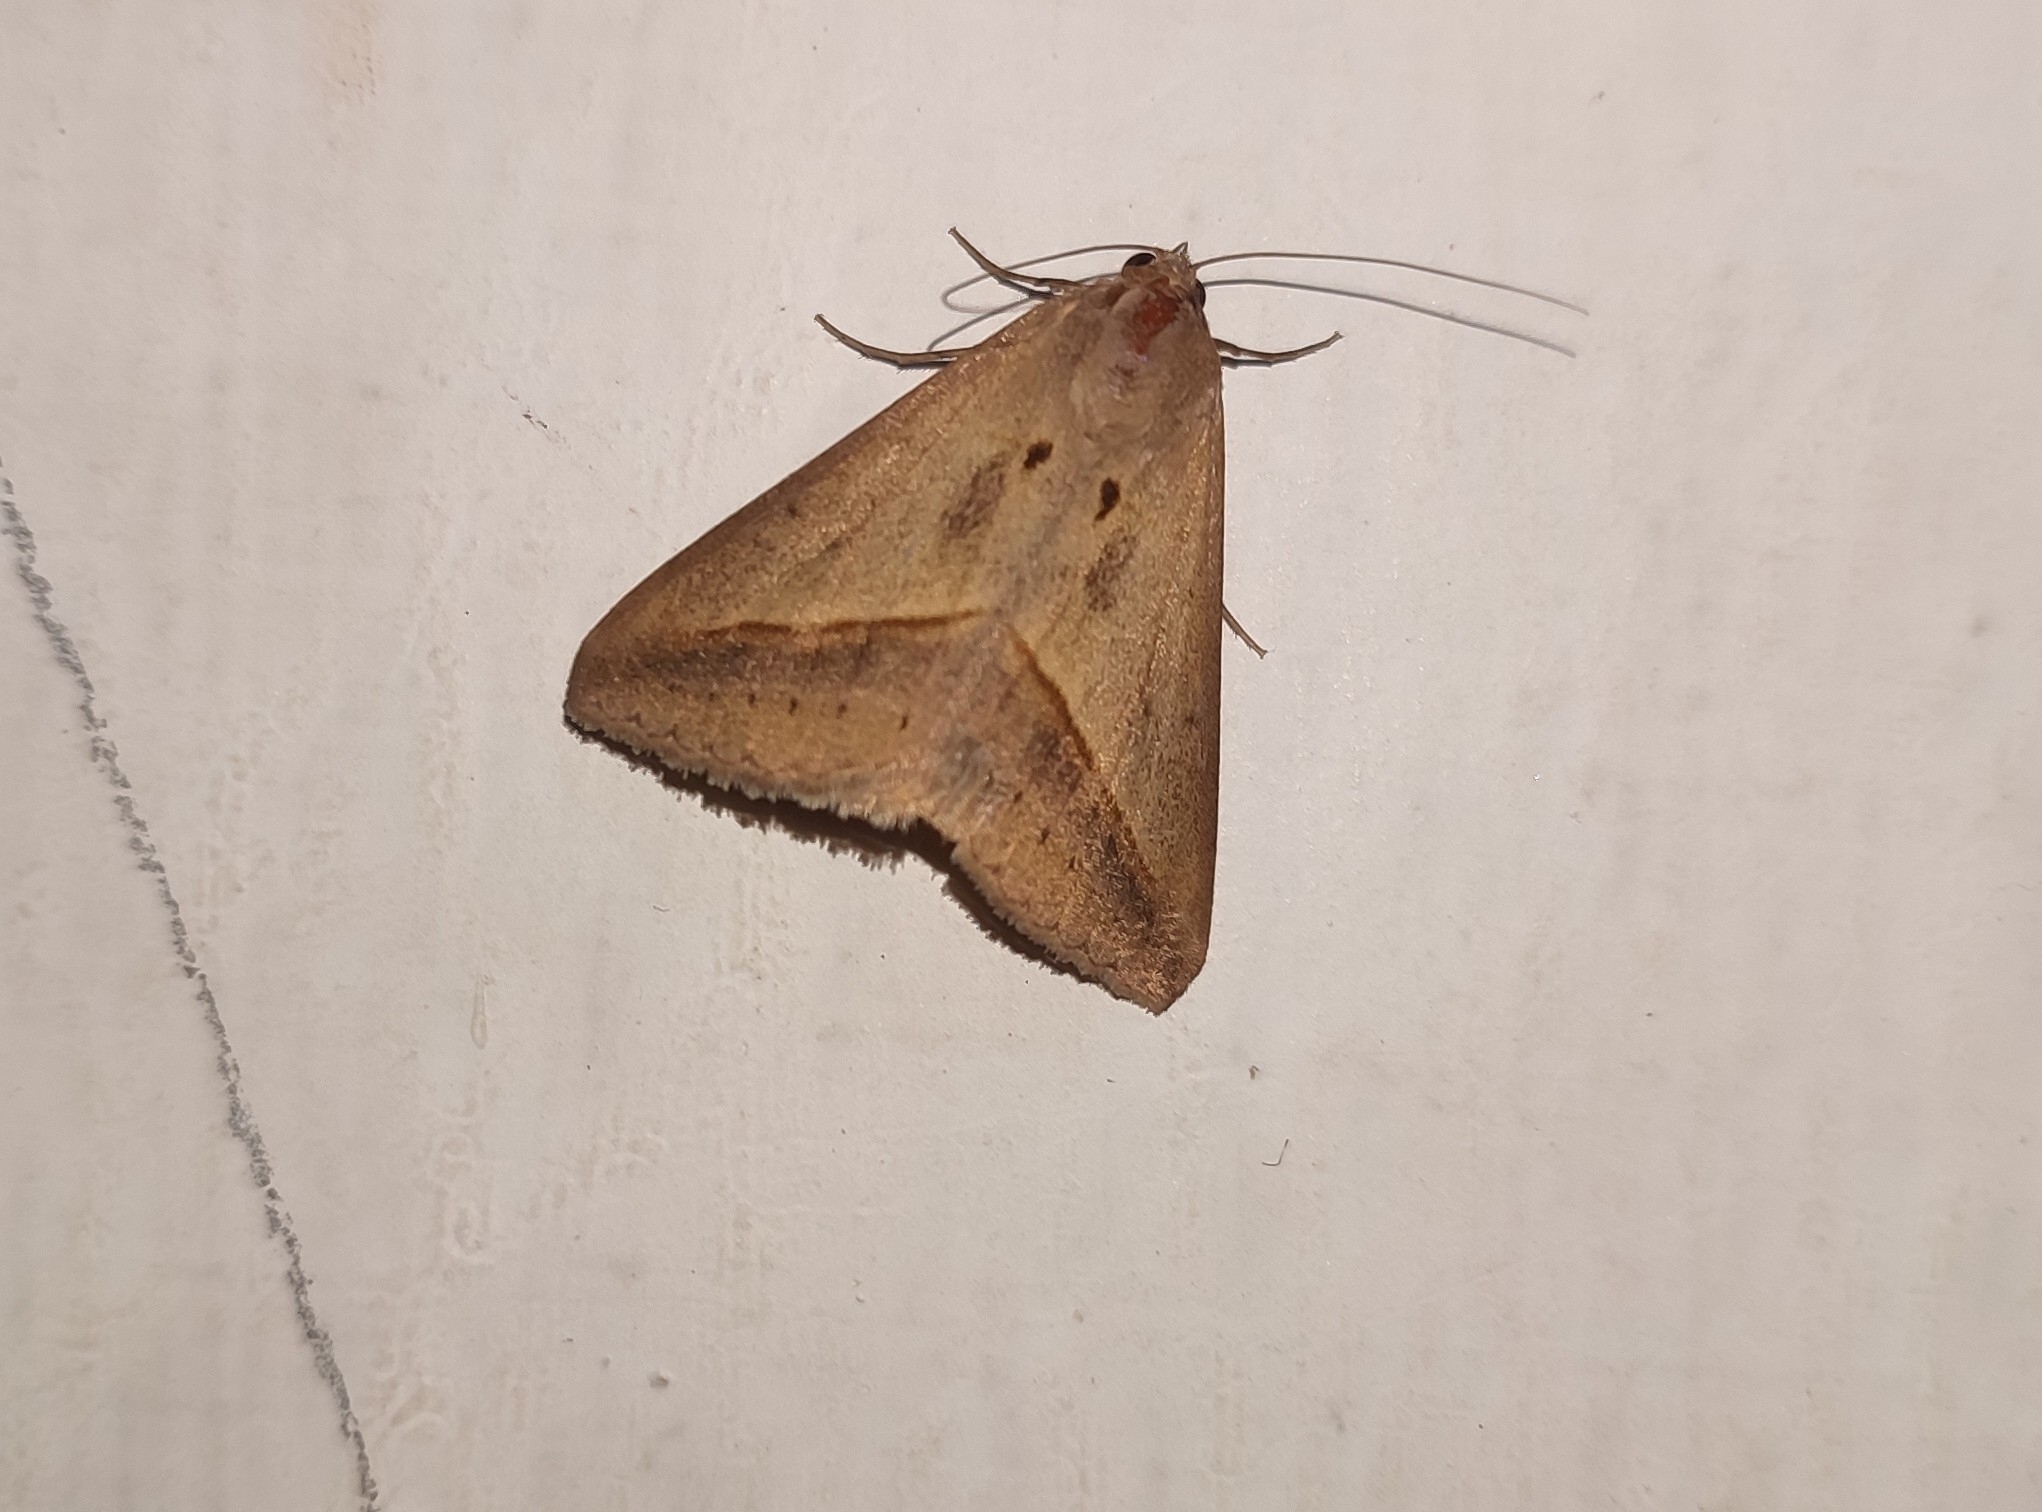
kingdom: Animalia
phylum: Arthropoda
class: Insecta
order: Lepidoptera
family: Erebidae
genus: Mocis
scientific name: Mocis frugalis
